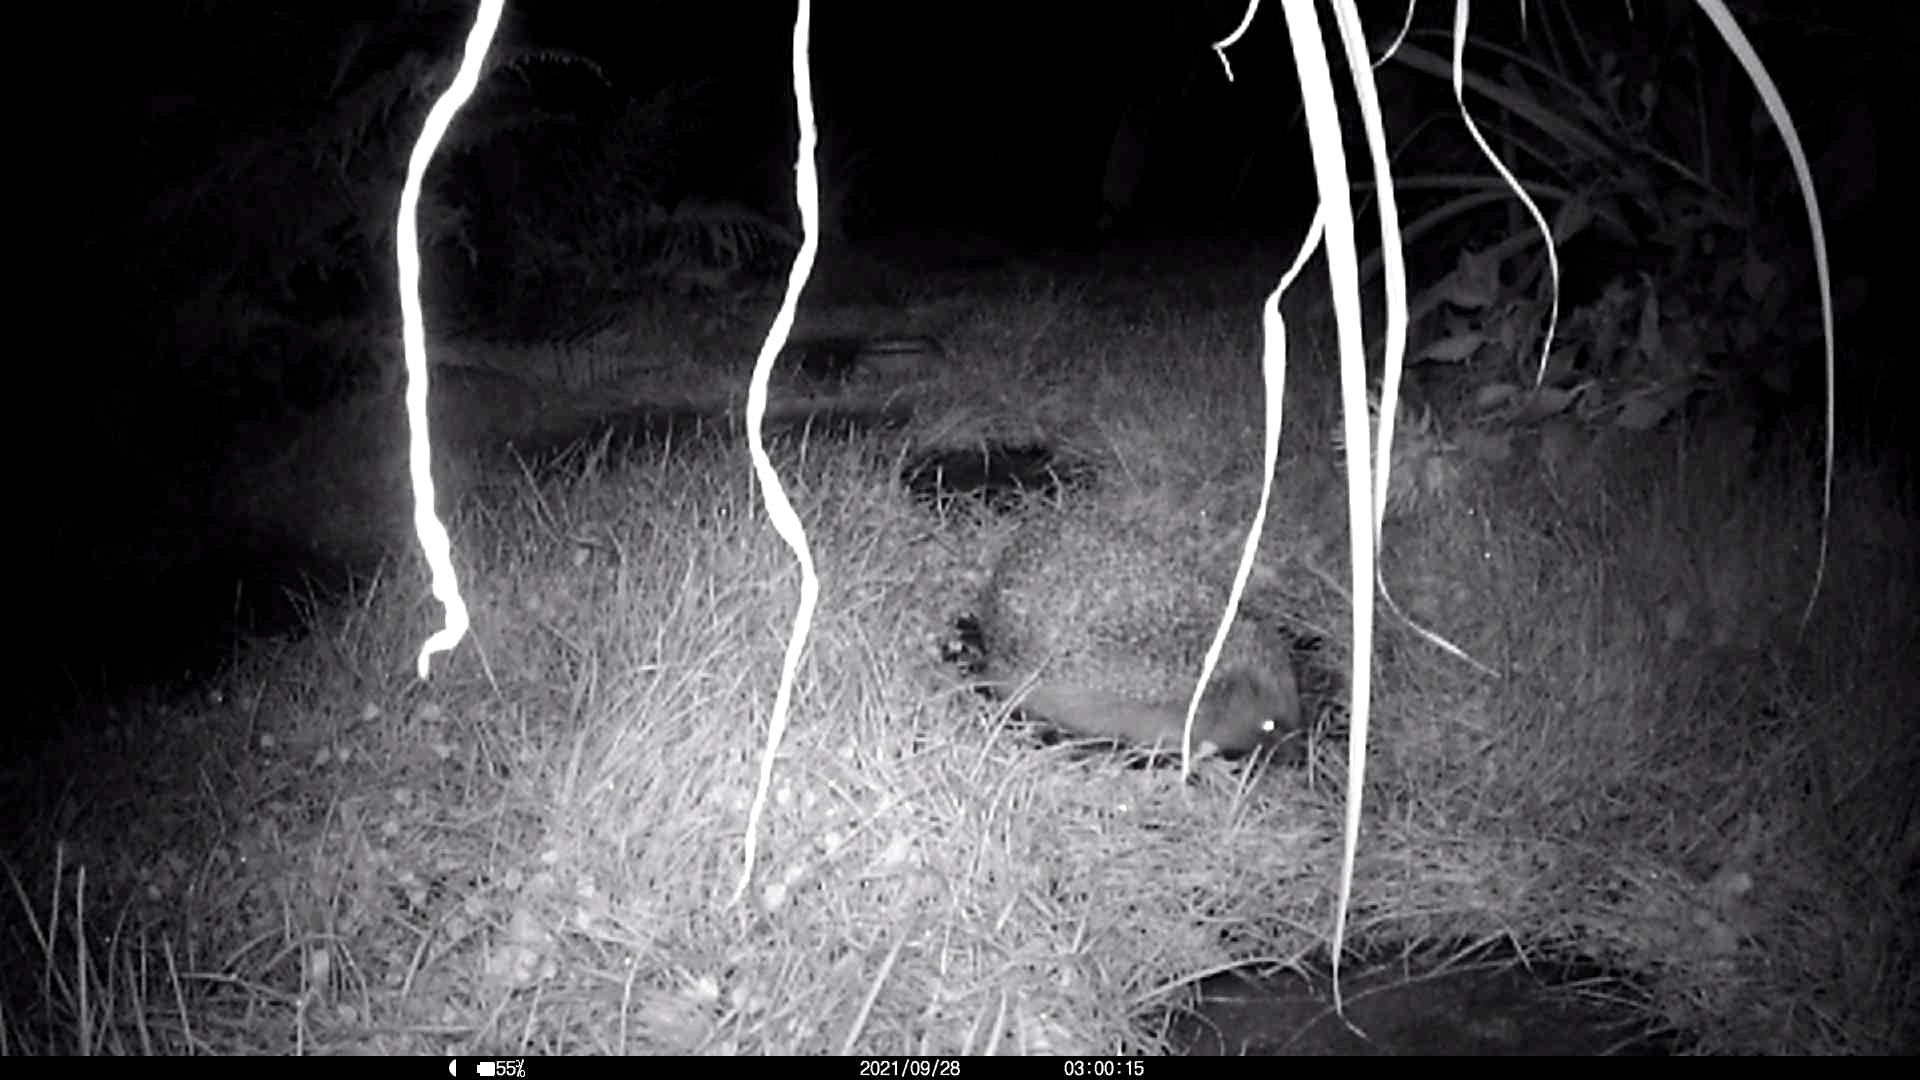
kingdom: Animalia
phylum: Chordata
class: Mammalia
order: Erinaceomorpha
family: Erinaceidae
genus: Erinaceus
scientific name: Erinaceus europaeus
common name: West european hedgehog
